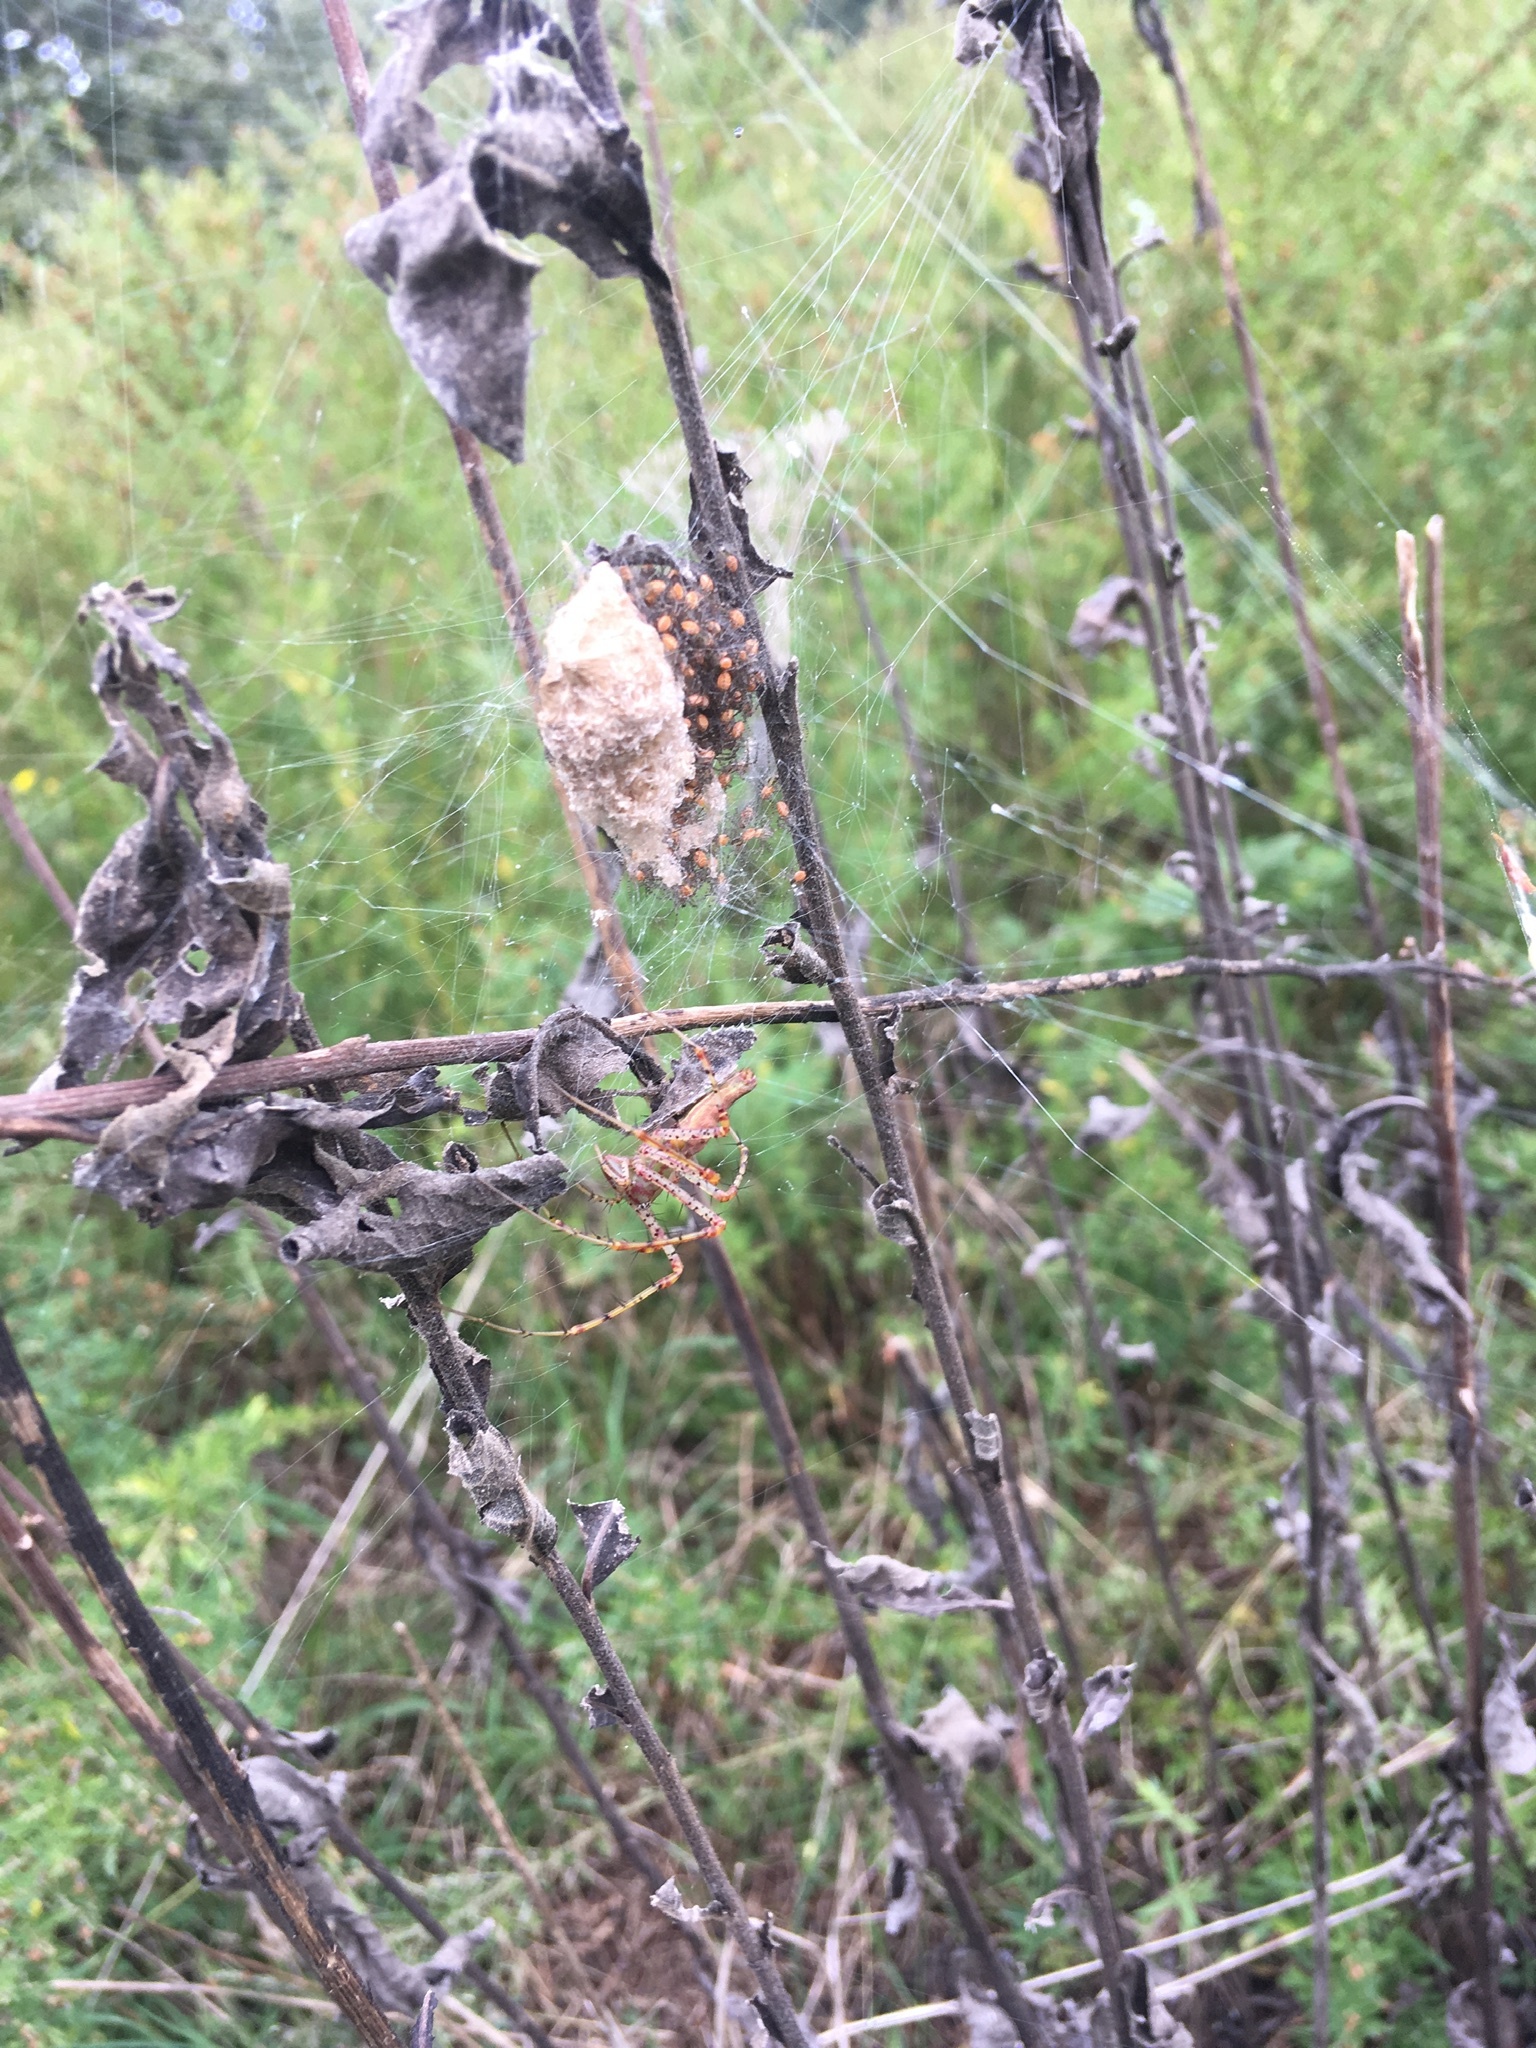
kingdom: Animalia
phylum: Arthropoda
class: Arachnida
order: Araneae
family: Oxyopidae
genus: Peucetia
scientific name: Peucetia viridans
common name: Lynx spiders
